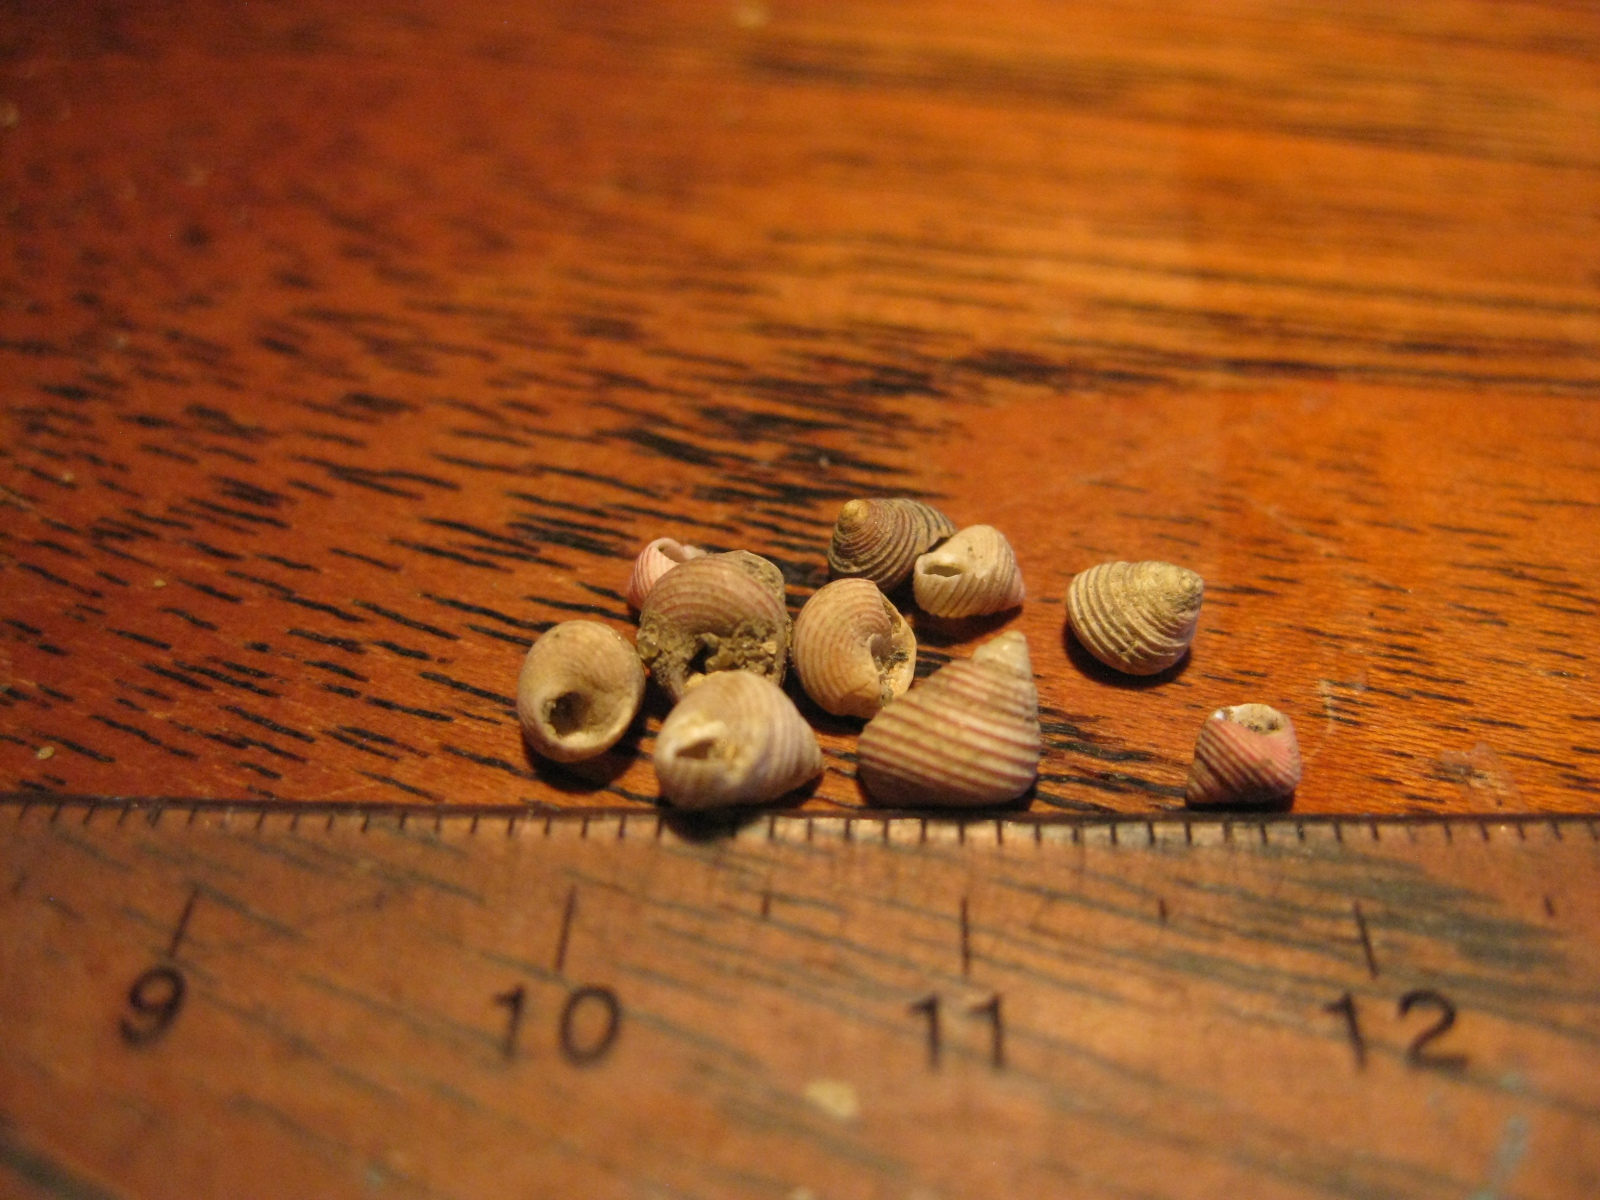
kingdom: Animalia
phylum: Mollusca
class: Gastropoda
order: Trochida
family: Trochidae
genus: Roseaplagis
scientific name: Roseaplagis rufozona
